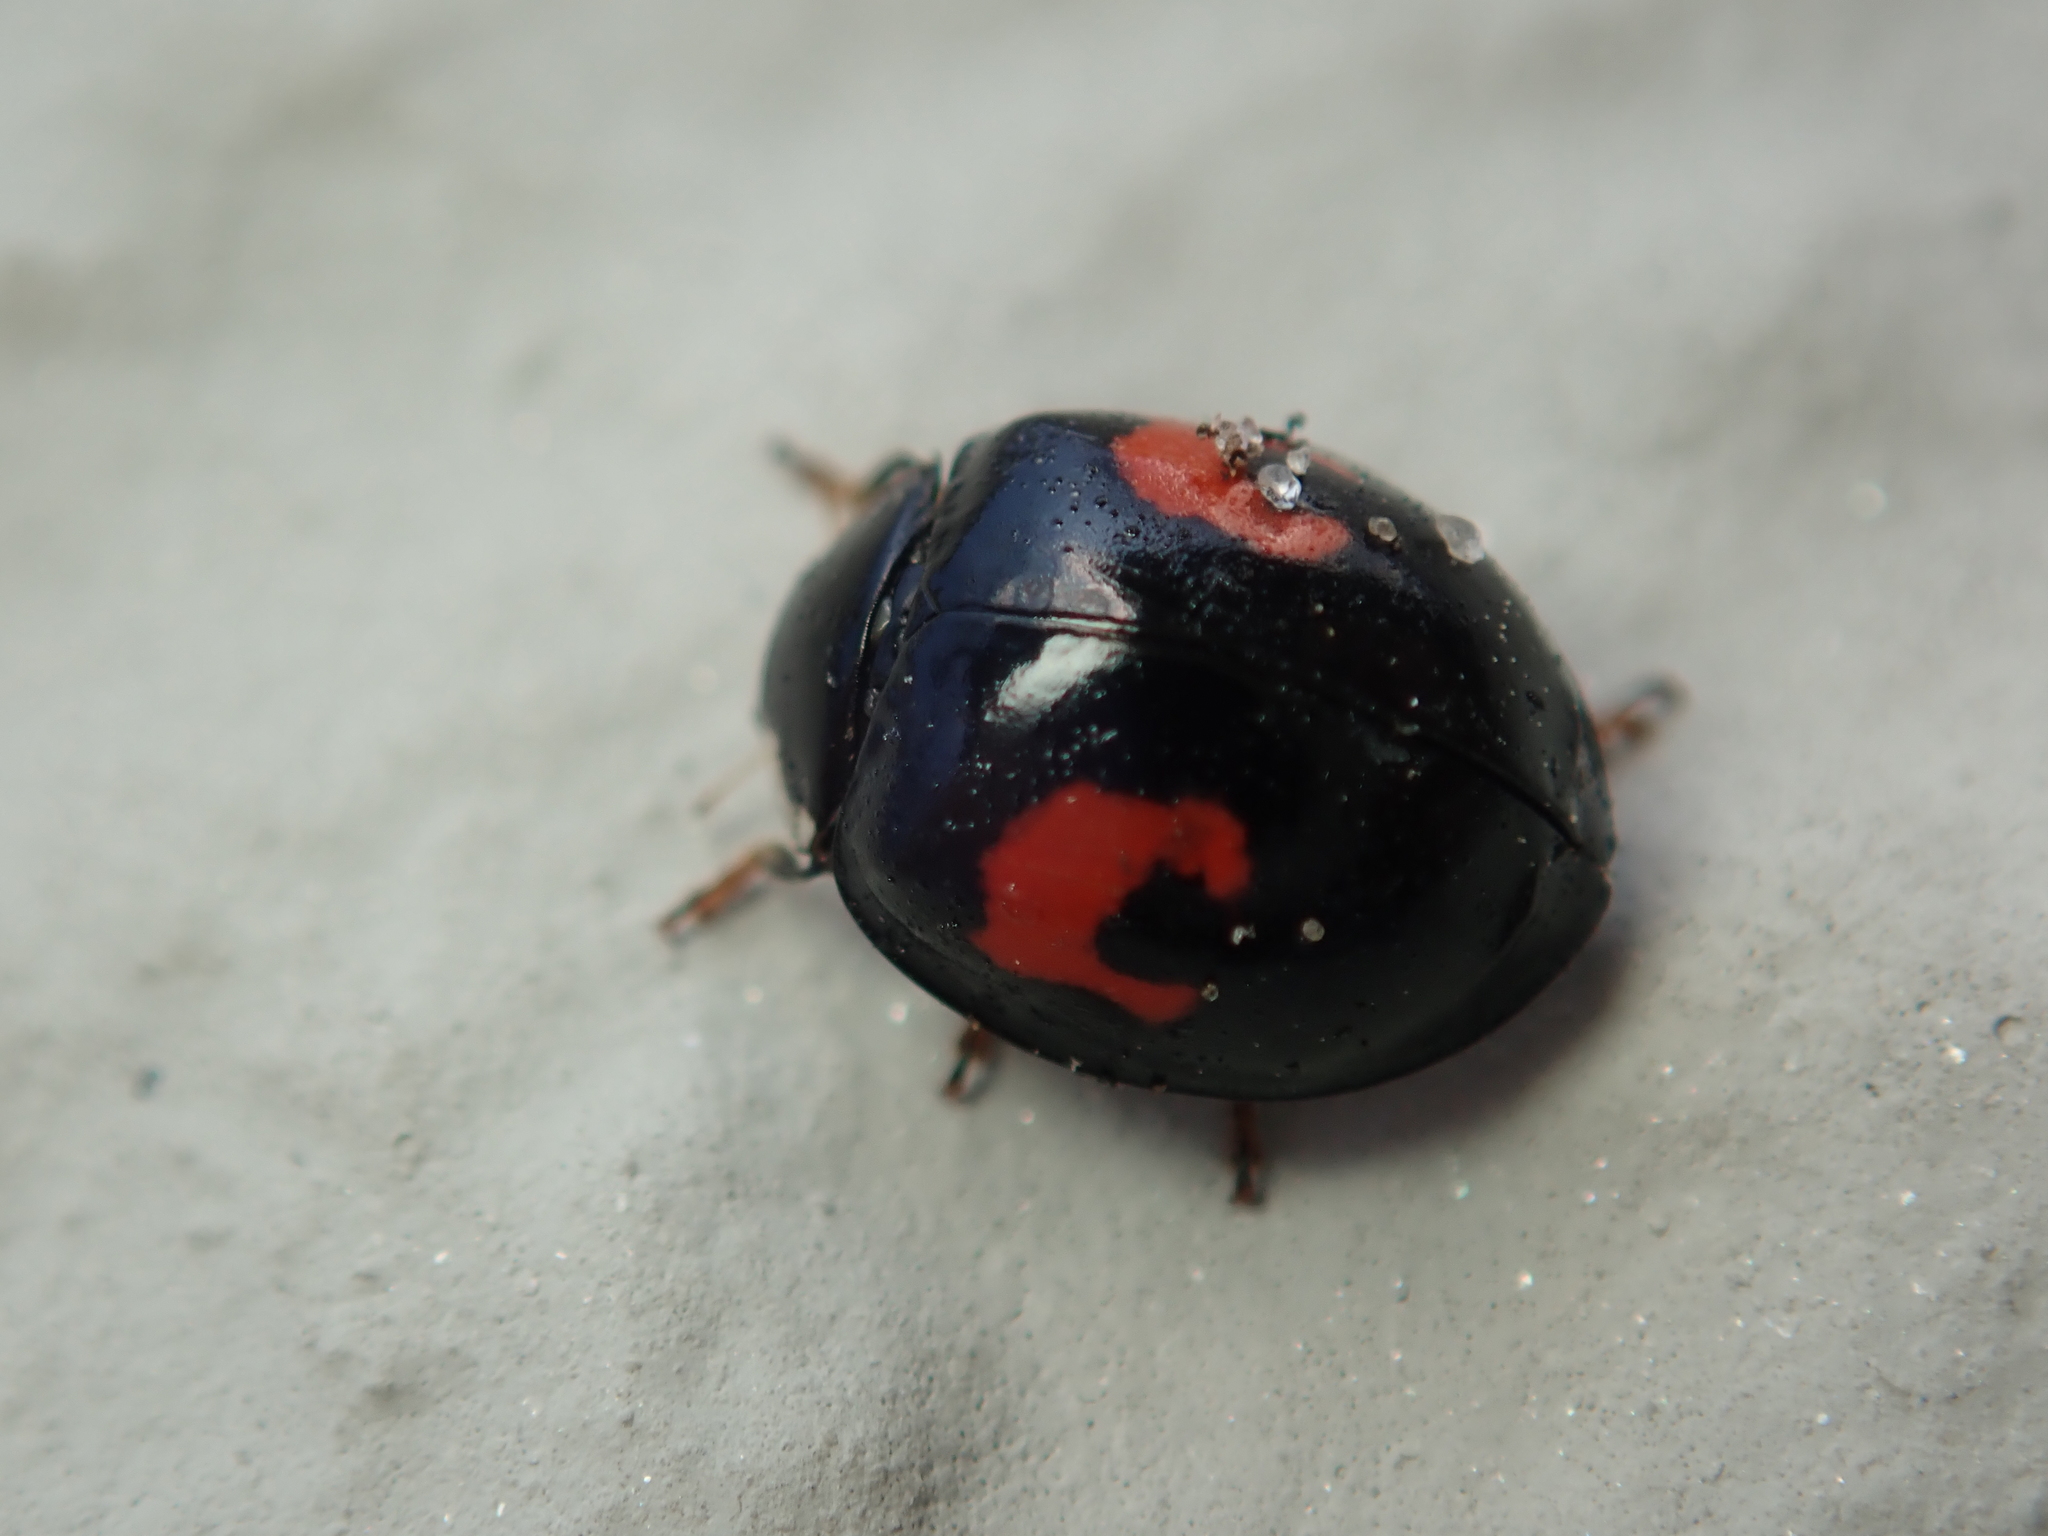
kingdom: Animalia
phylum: Arthropoda
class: Insecta
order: Coleoptera
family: Coccinellidae
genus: Harmonia
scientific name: Harmonia axyridis
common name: Harlequin ladybird
